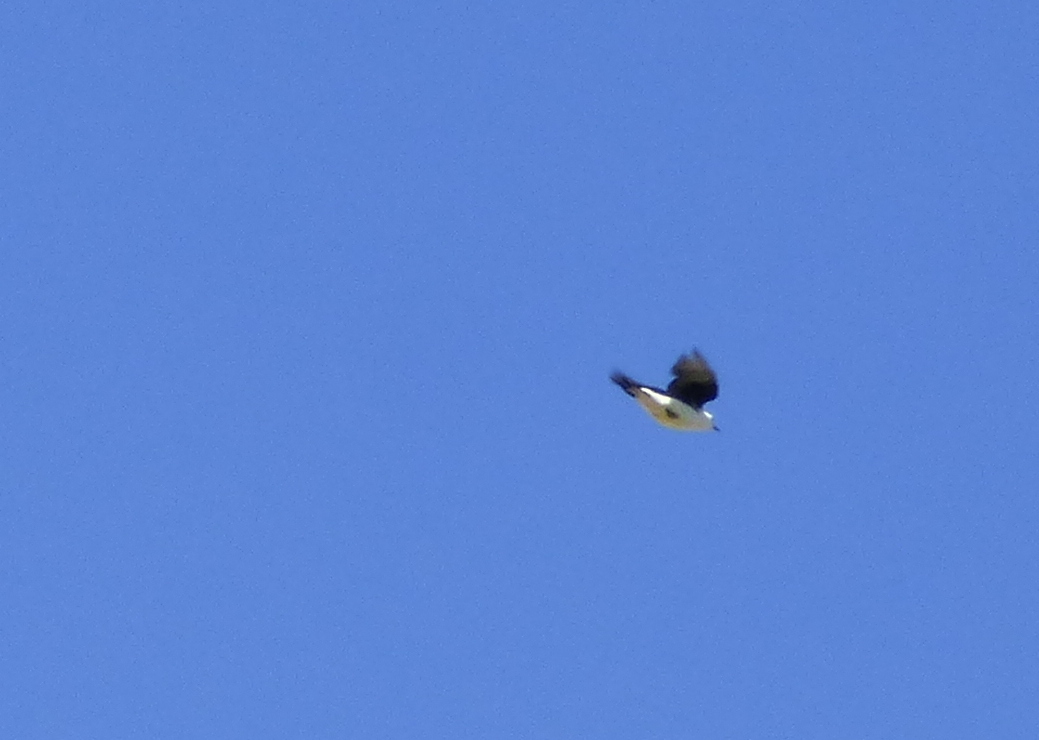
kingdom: Animalia
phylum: Chordata
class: Aves
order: Piciformes
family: Picidae
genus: Melanerpes
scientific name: Melanerpes candidus
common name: White woodpecker
